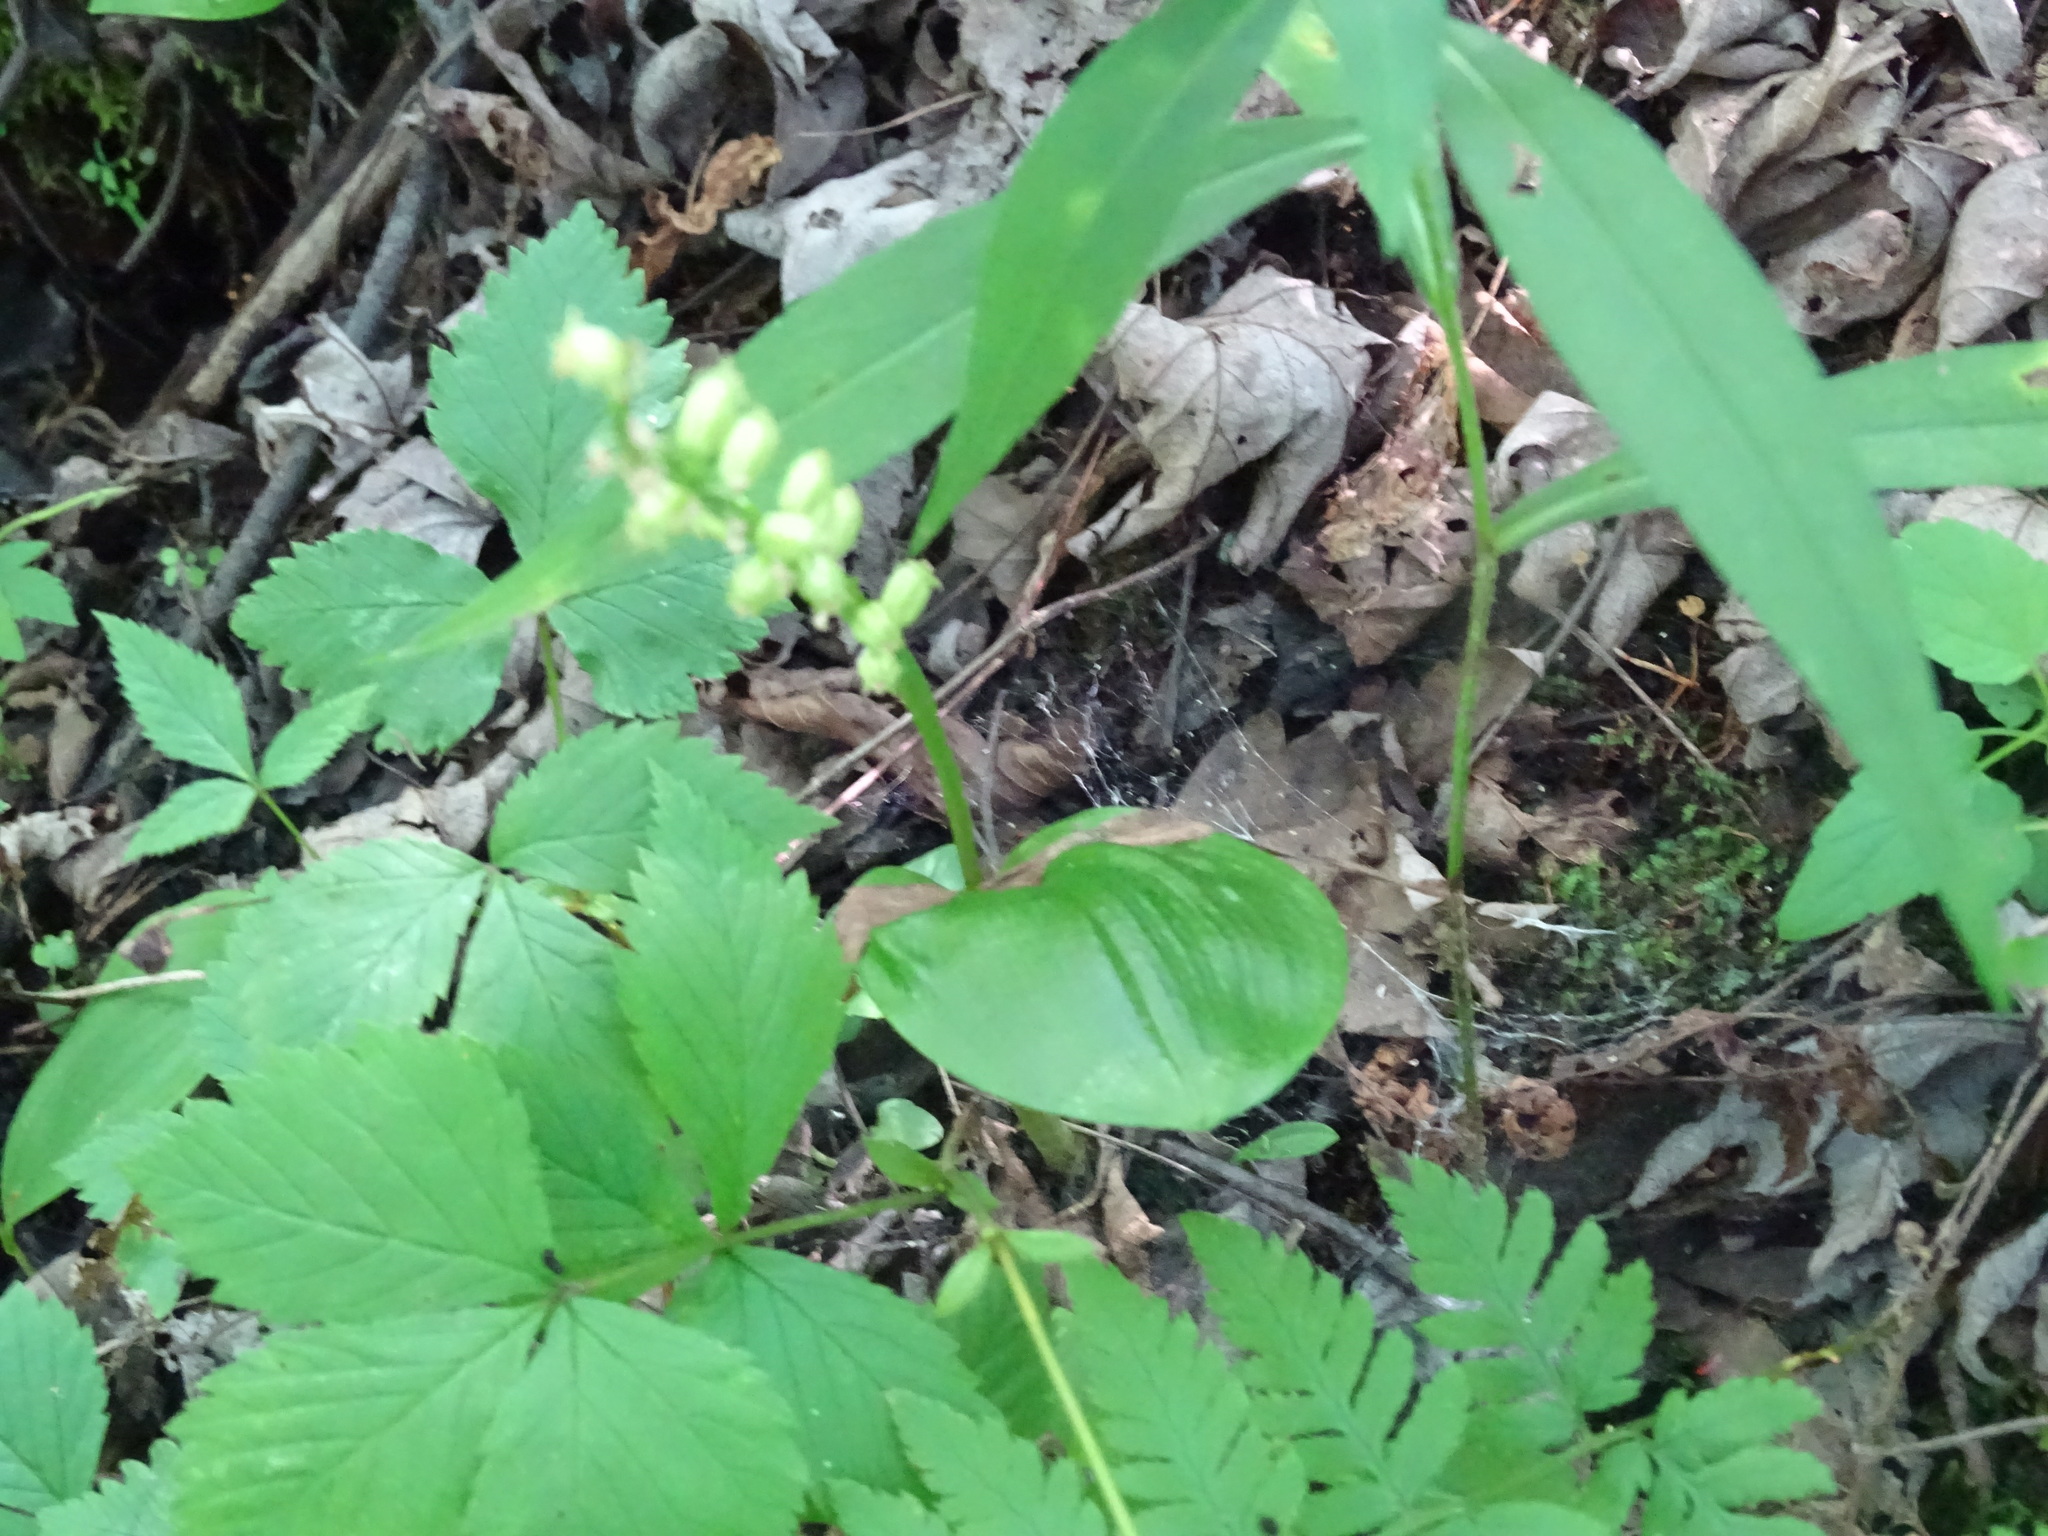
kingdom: Plantae
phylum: Tracheophyta
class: Liliopsida
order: Asparagales
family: Orchidaceae
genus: Malaxis
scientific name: Malaxis monophyllos
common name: White adder's-mouth
